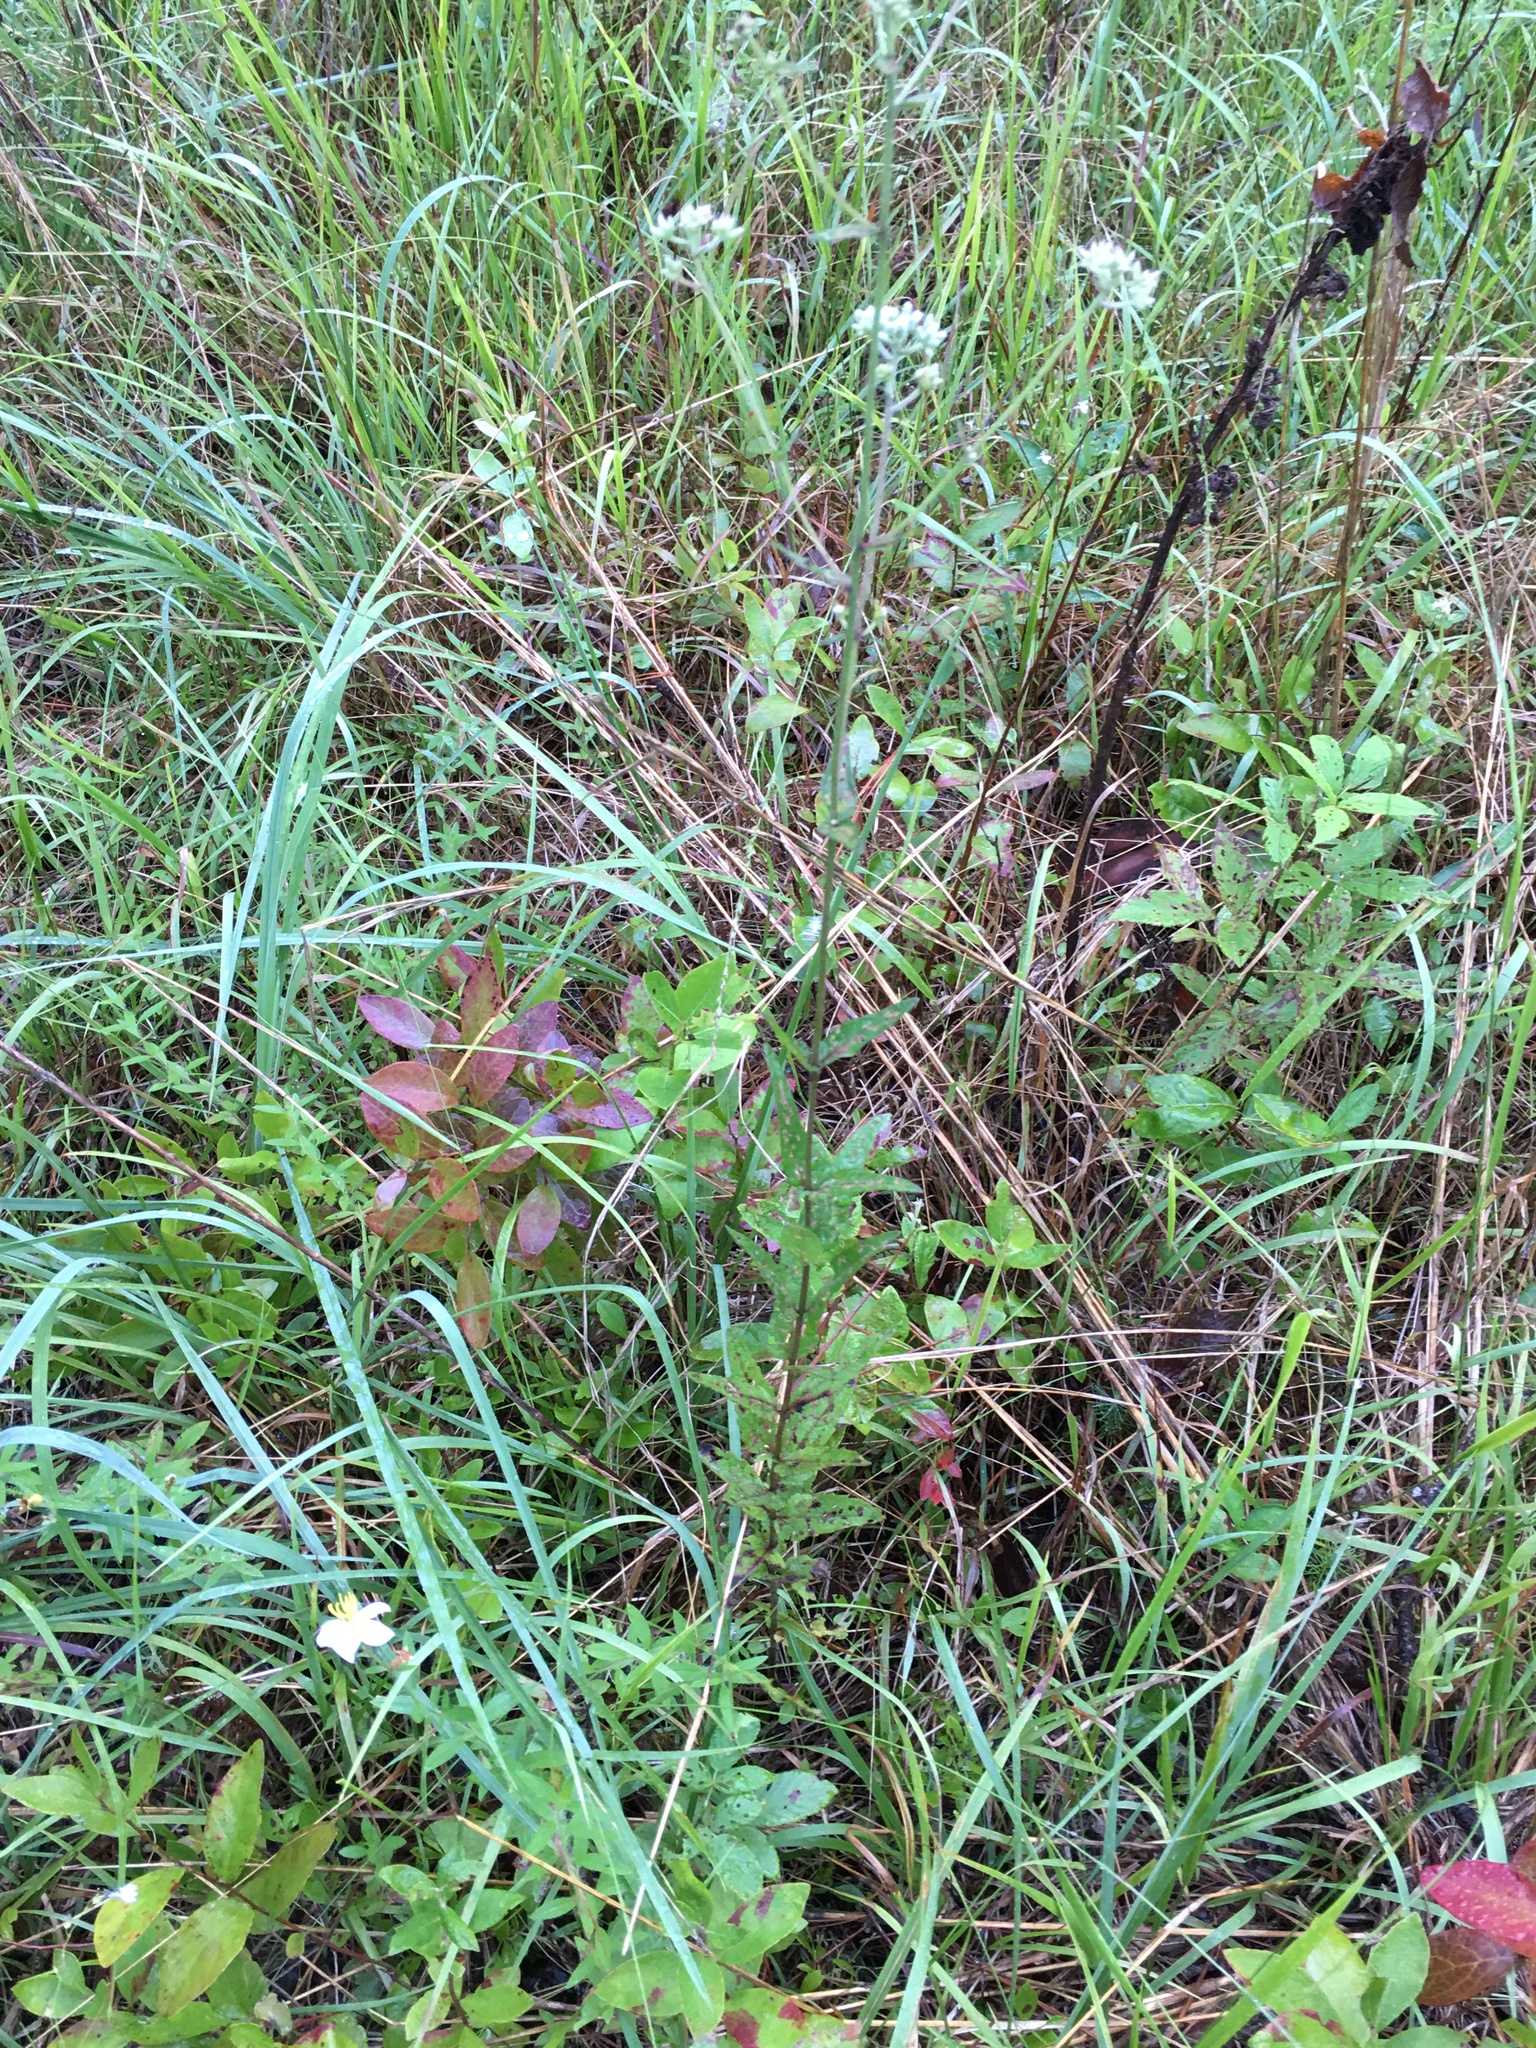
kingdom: Plantae
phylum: Tracheophyta
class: Magnoliopsida
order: Asterales
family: Asteraceae
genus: Eupatorium
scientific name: Eupatorium pilosum
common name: Rough boneset
